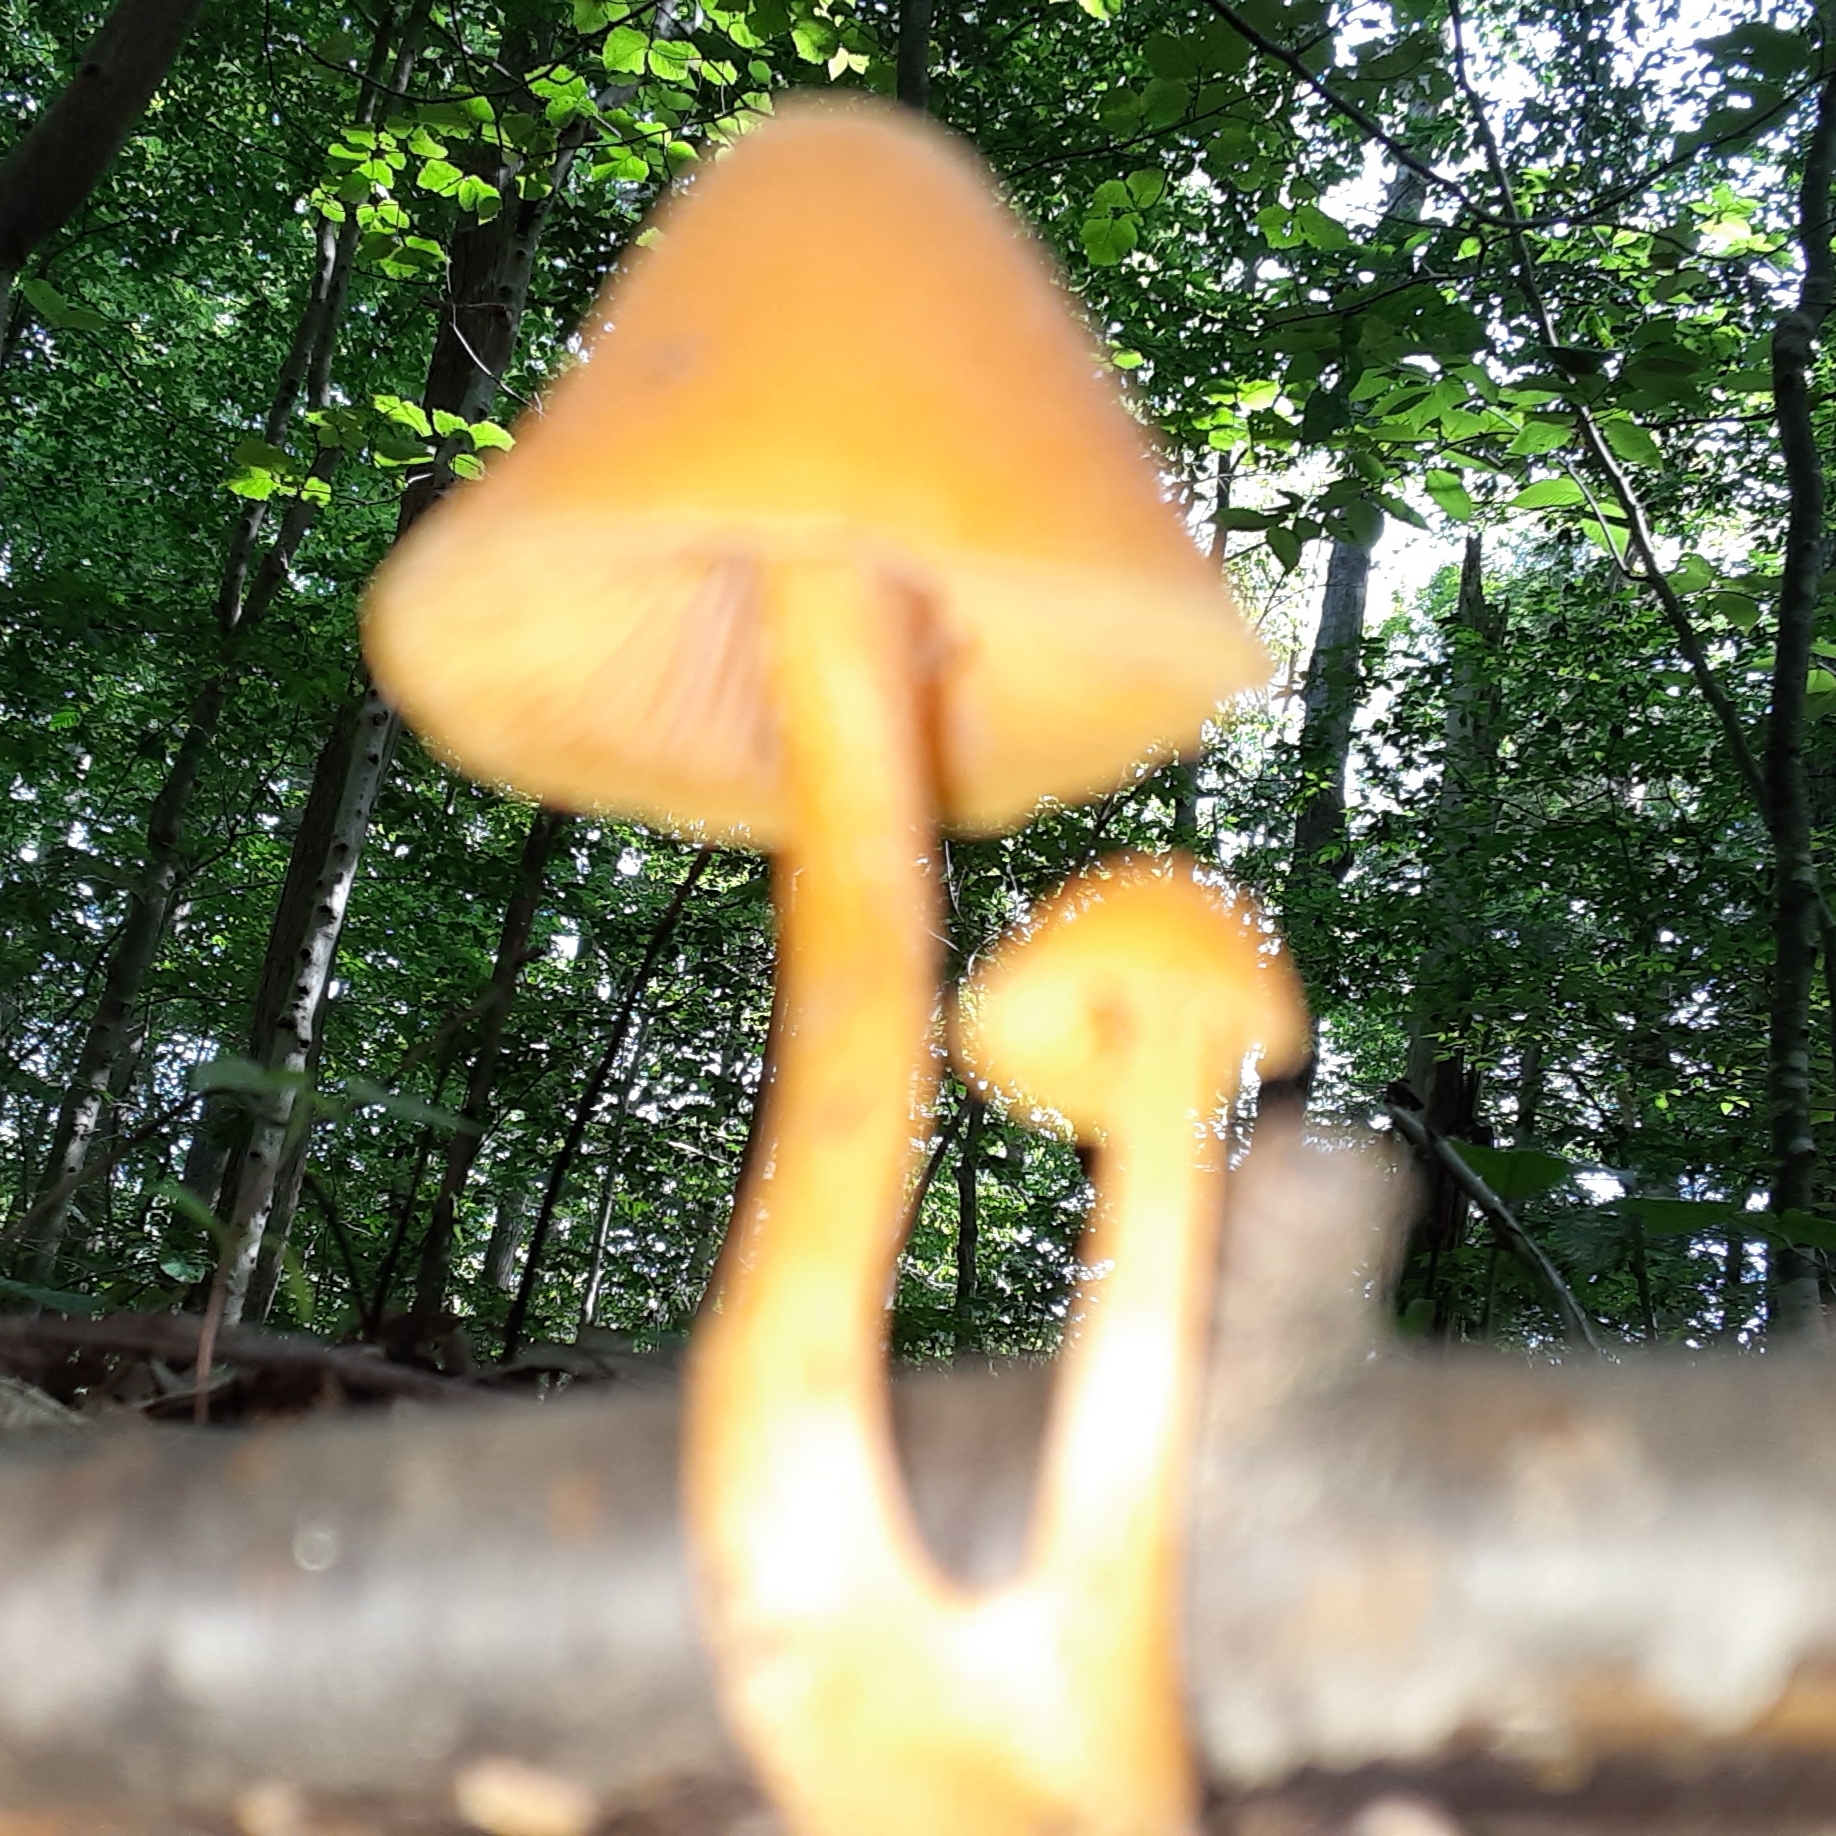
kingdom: Fungi
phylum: Basidiomycota
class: Agaricomycetes
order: Agaricales
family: Entolomataceae
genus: Entoloma
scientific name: Entoloma quadratum
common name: Salmon pinkgill
